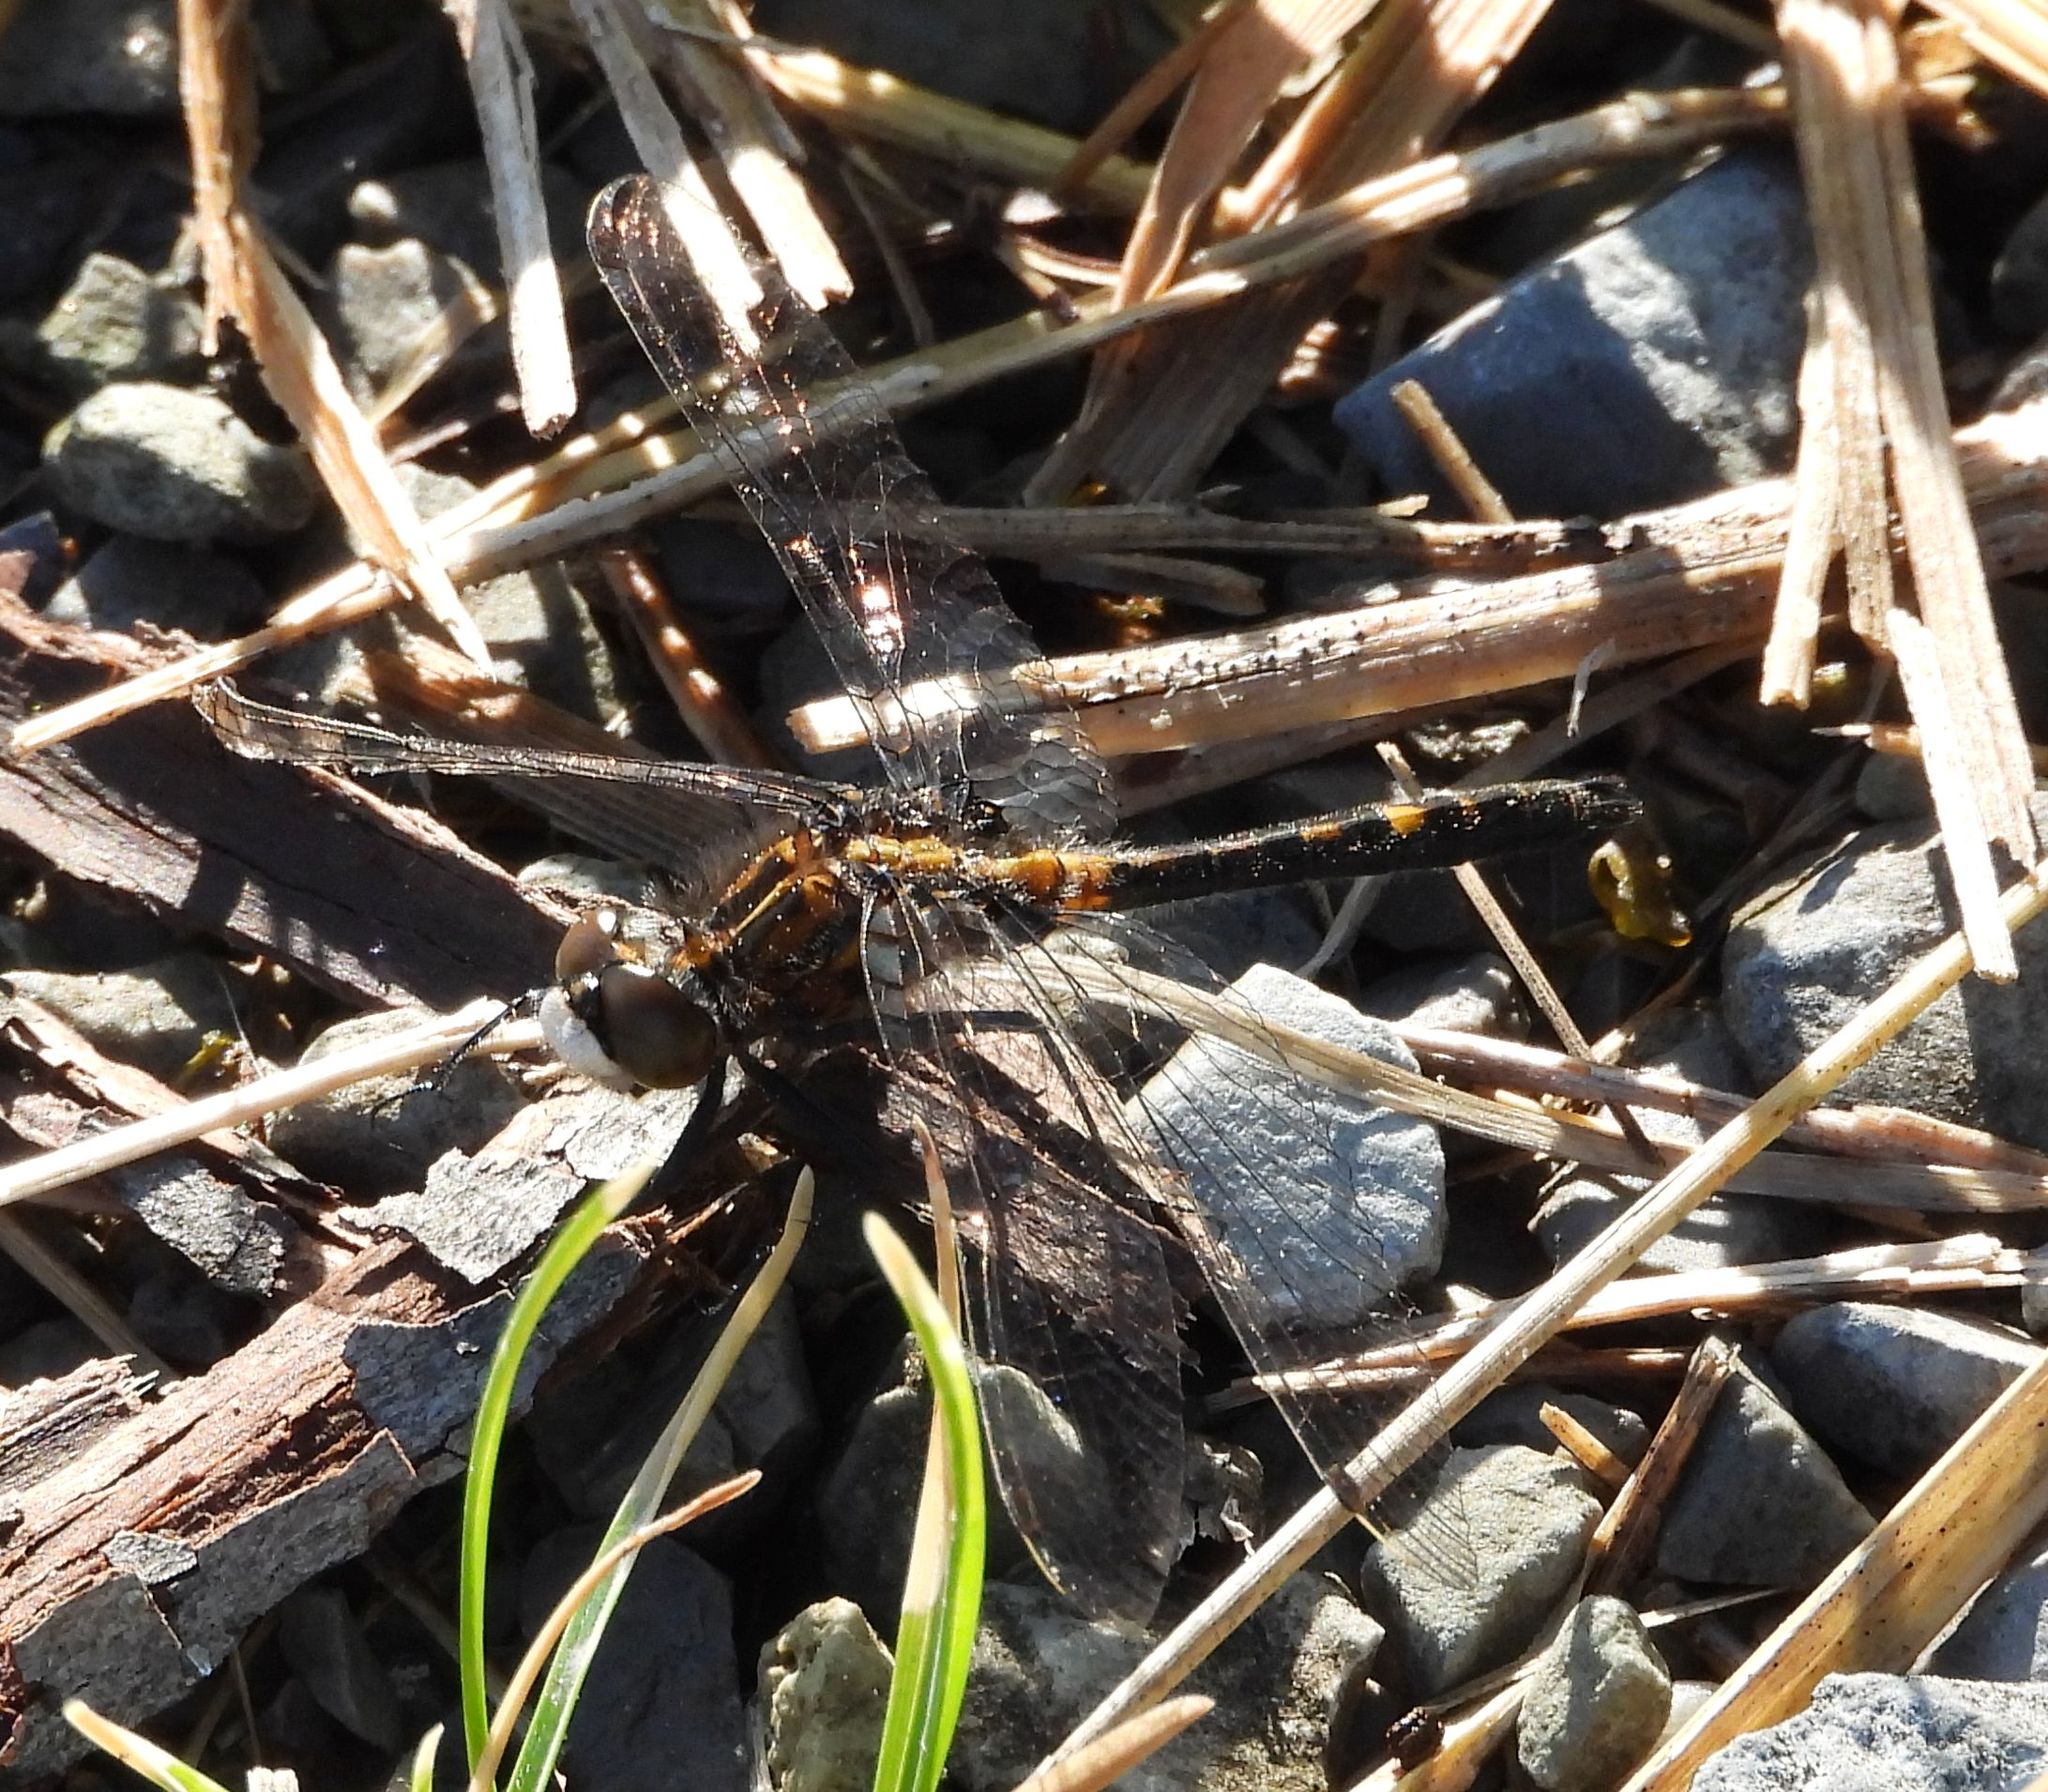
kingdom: Animalia
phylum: Arthropoda
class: Insecta
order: Odonata
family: Libellulidae
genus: Leucorrhinia
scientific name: Leucorrhinia intacta
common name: Dot-tailed whiteface
